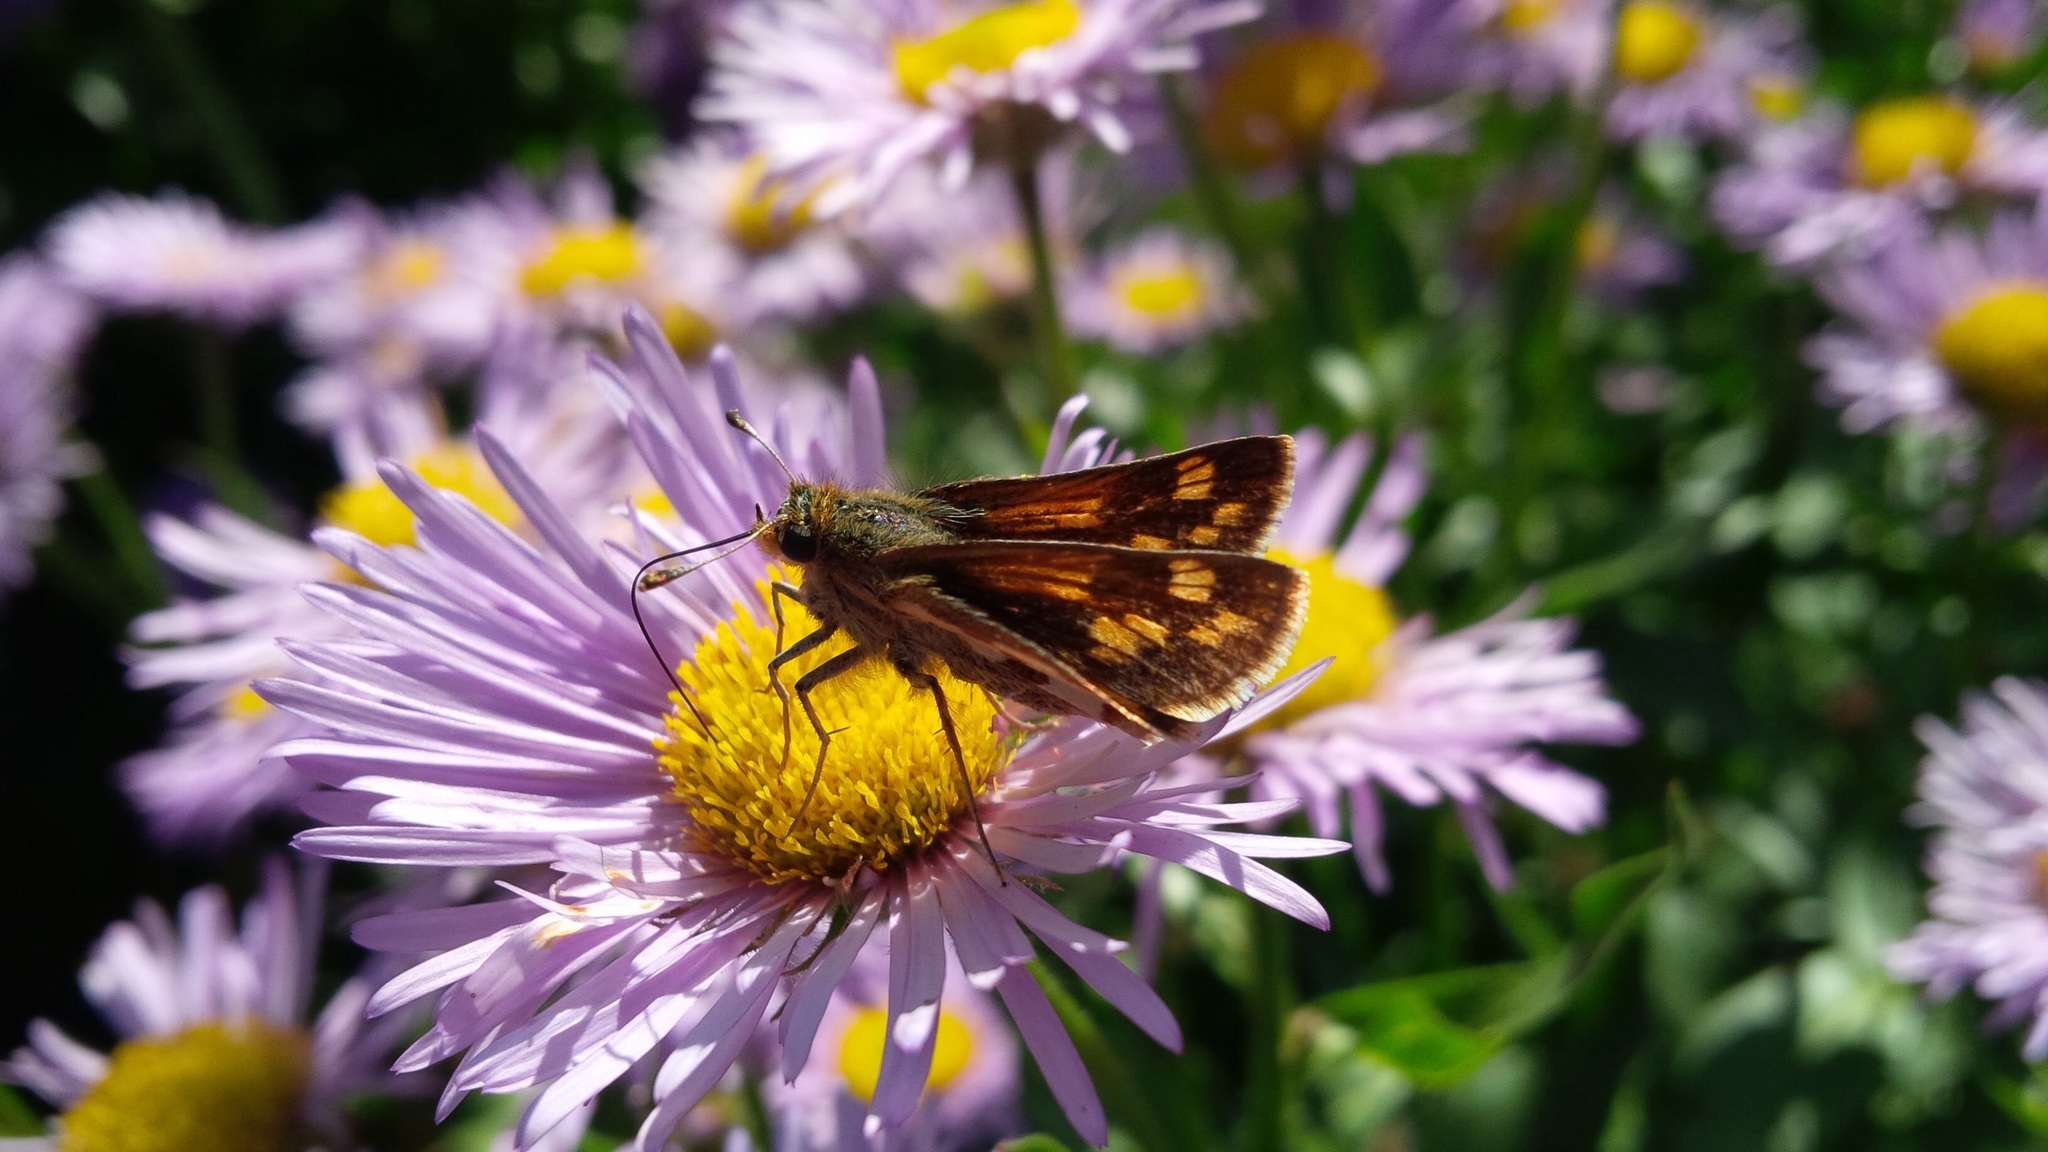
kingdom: Animalia
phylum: Arthropoda
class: Insecta
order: Lepidoptera
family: Hesperiidae
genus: Polites
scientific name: Polites coras
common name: Peck's skipper
